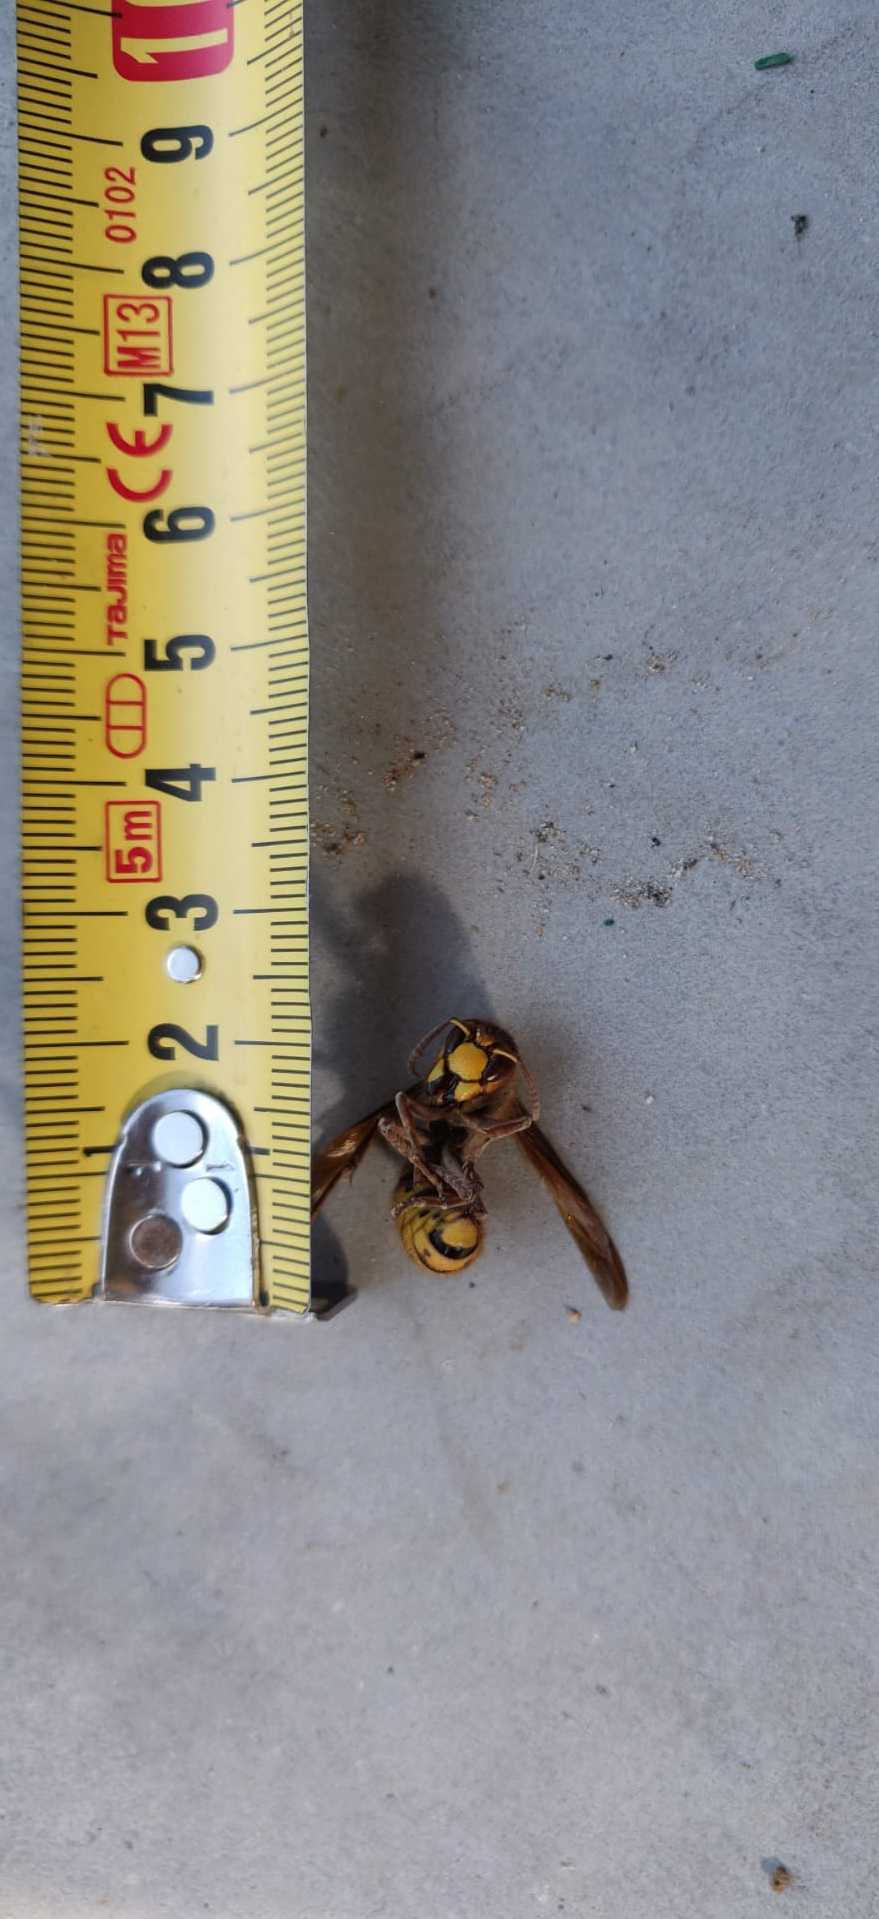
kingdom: Animalia
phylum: Arthropoda
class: Insecta
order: Hymenoptera
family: Vespidae
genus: Vespa
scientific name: Vespa crabro
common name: Hornet
